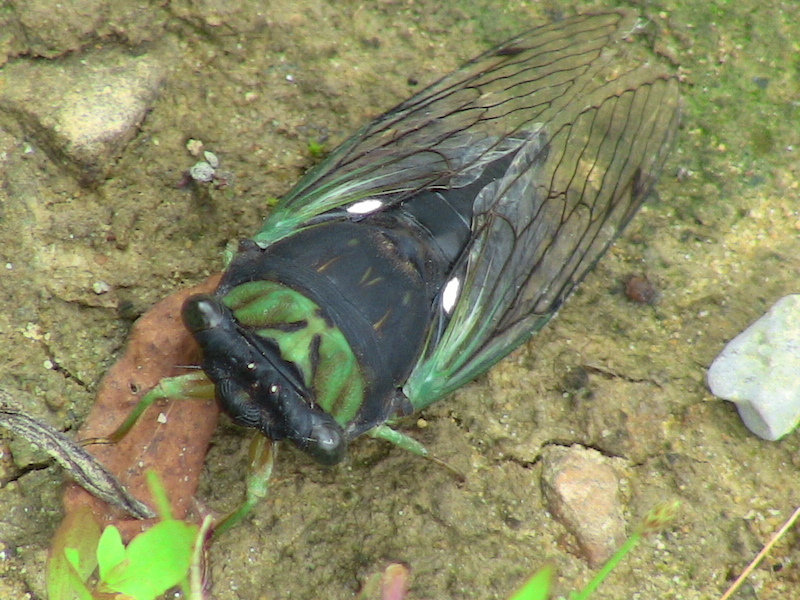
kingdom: Animalia
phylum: Arthropoda
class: Insecta
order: Hemiptera
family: Cicadidae
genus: Neotibicen
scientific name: Neotibicen tibicen
